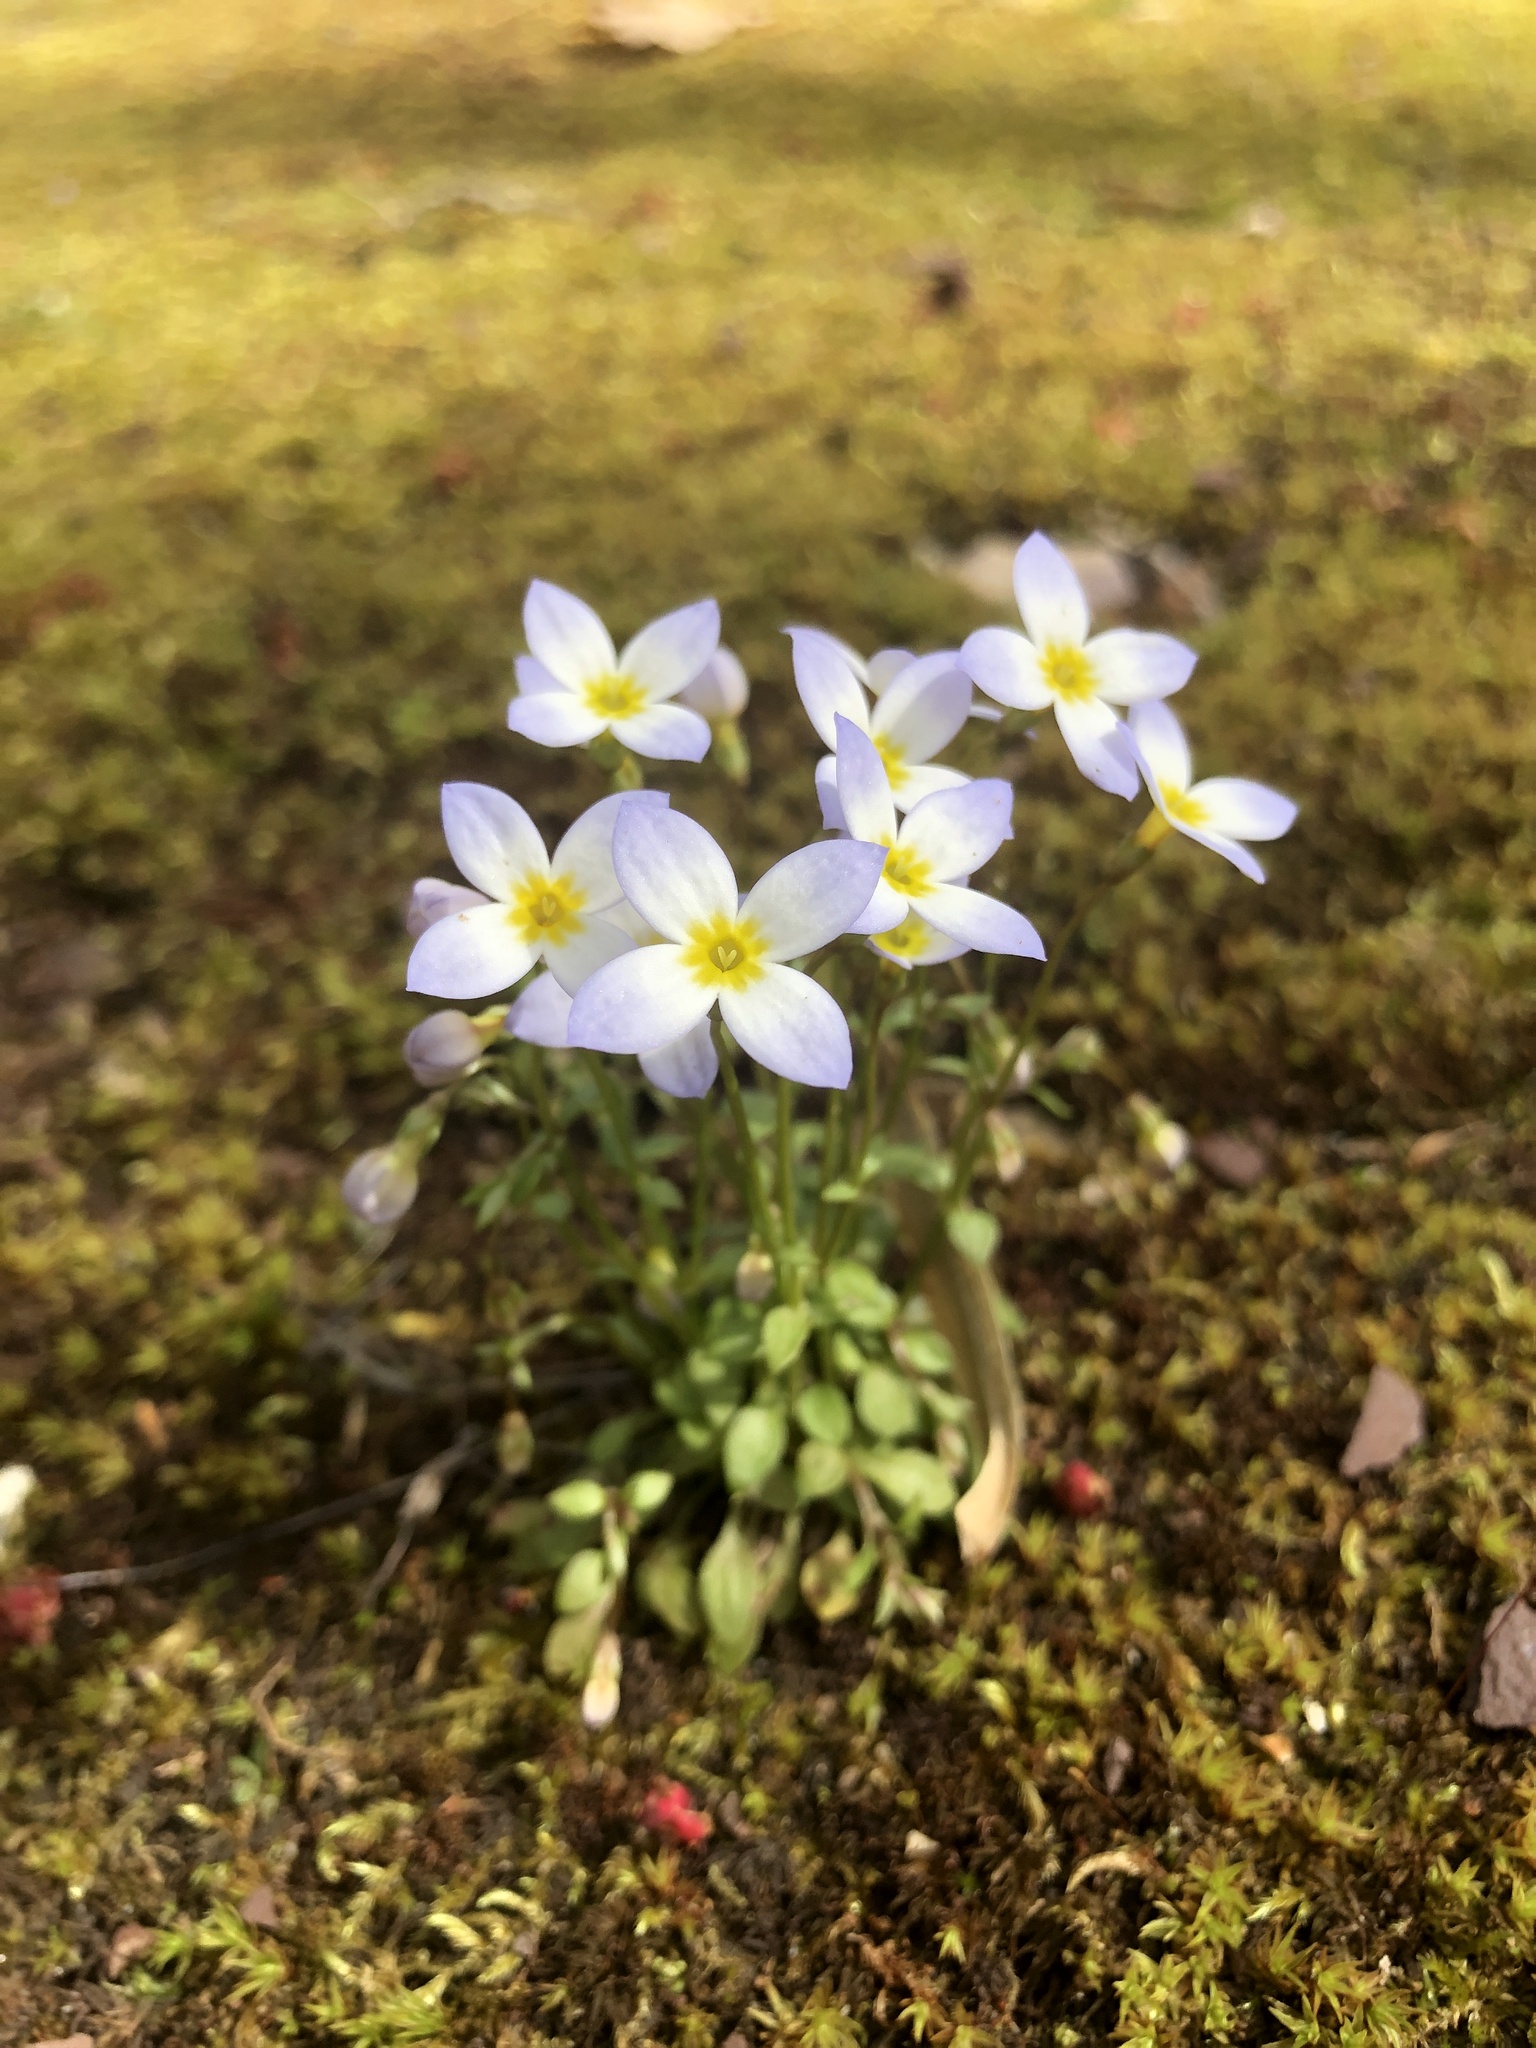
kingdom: Plantae
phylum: Tracheophyta
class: Magnoliopsida
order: Gentianales
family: Rubiaceae
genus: Houstonia
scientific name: Houstonia caerulea
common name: Bluets
